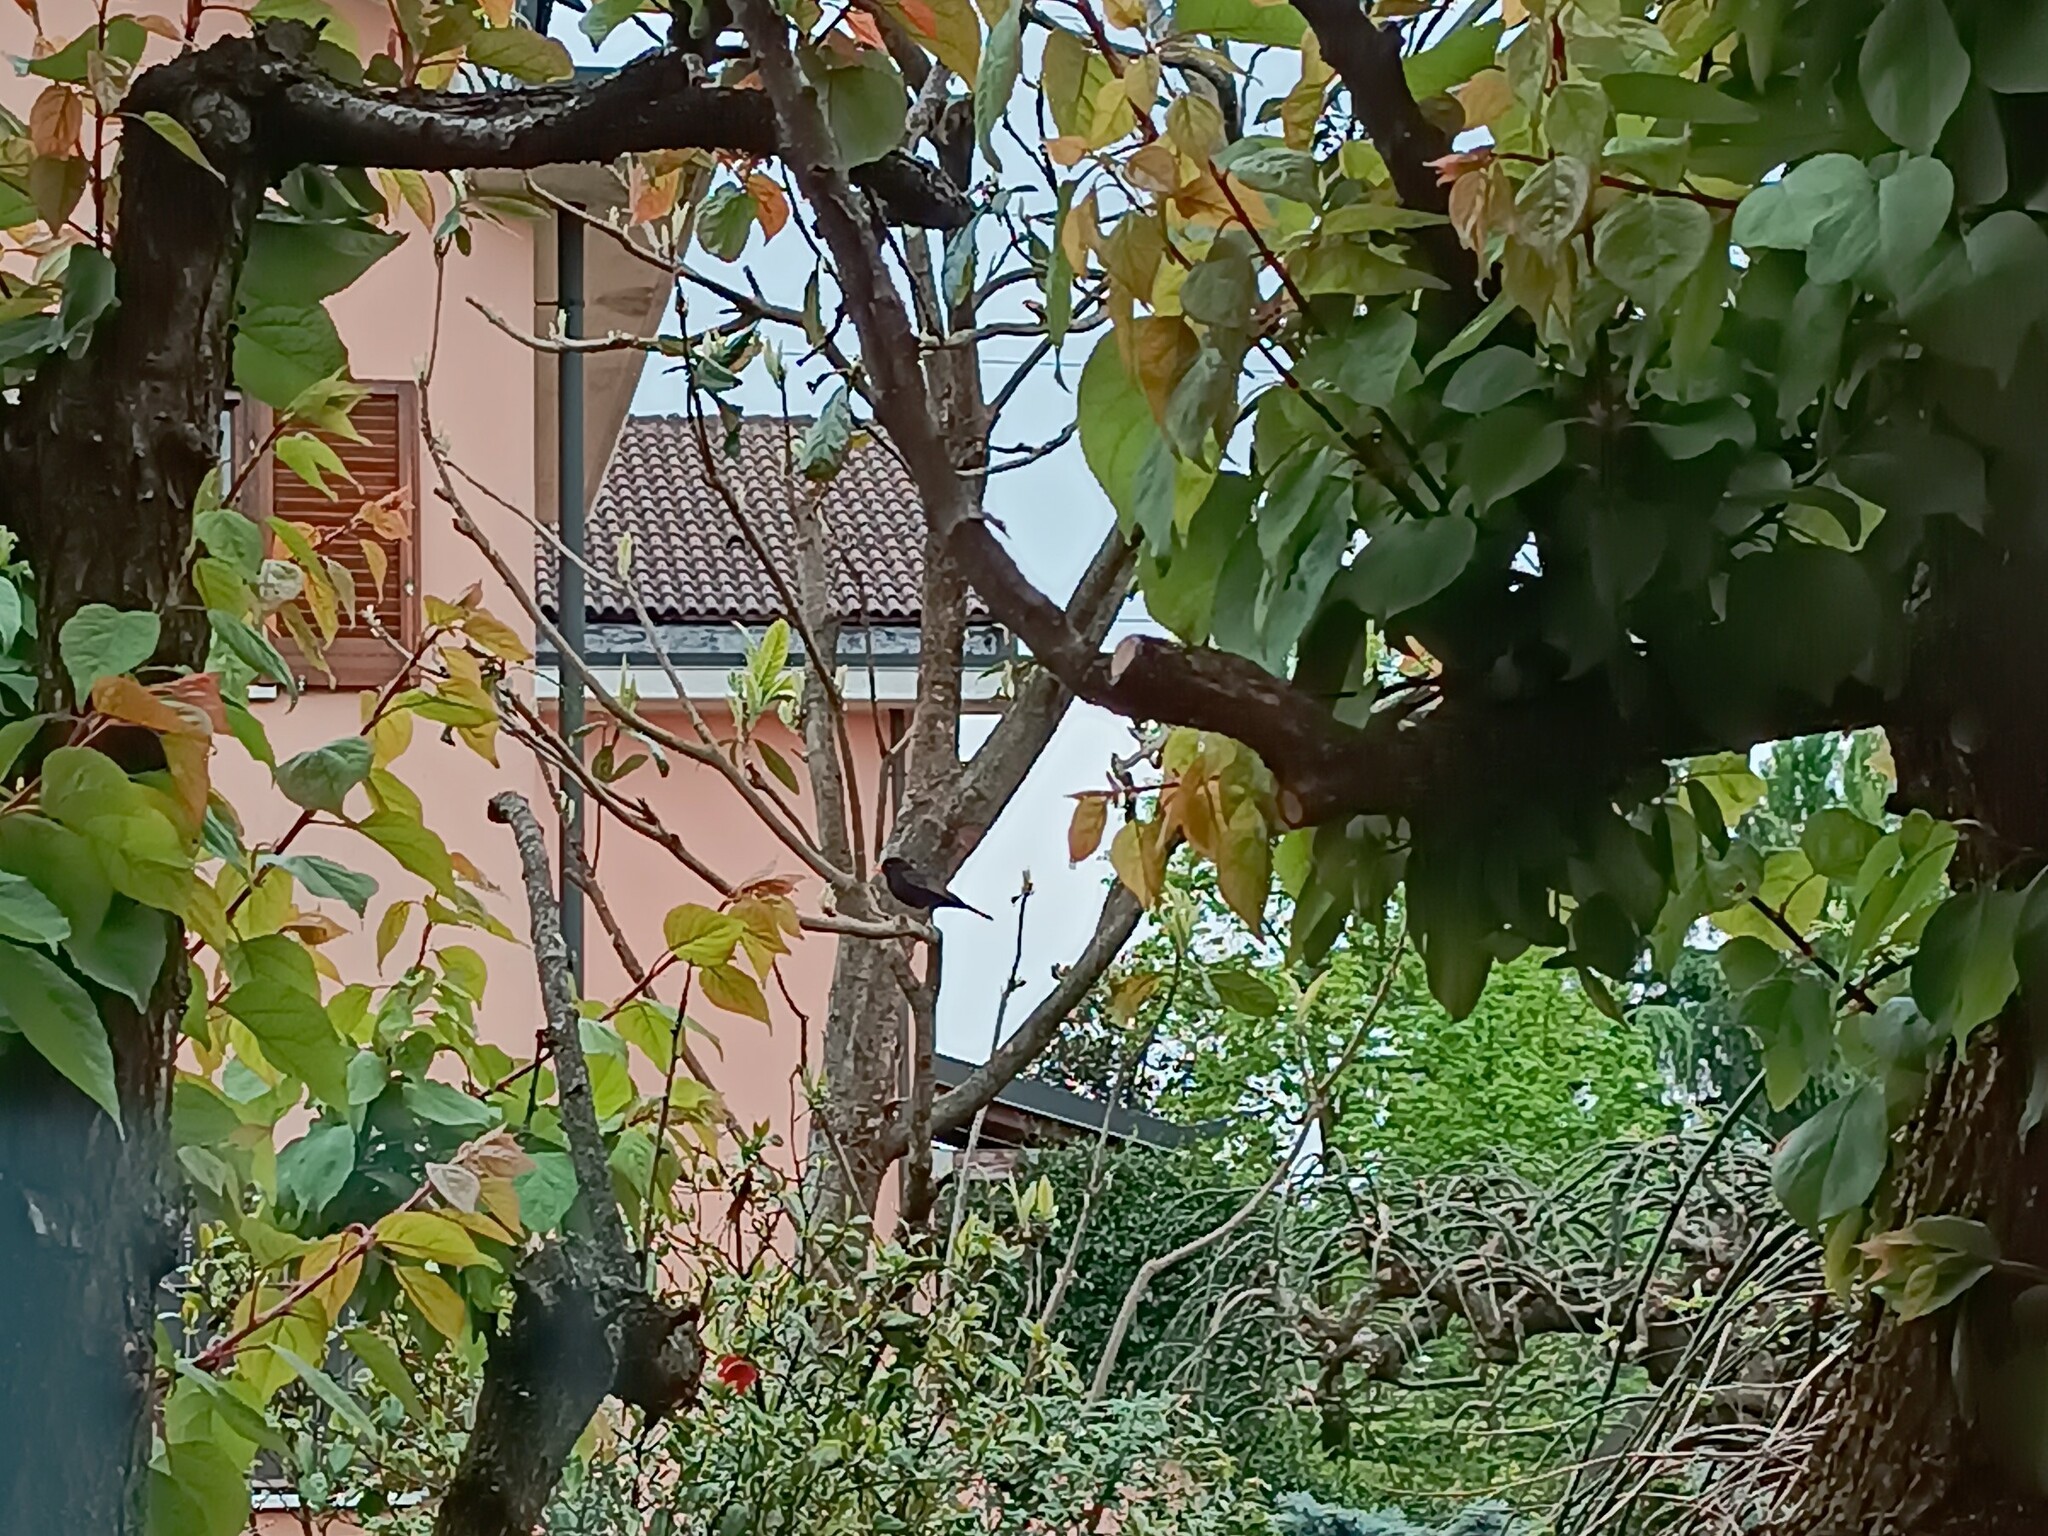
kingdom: Animalia
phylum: Chordata
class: Aves
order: Passeriformes
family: Turdidae
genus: Turdus
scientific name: Turdus merula
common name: Common blackbird
